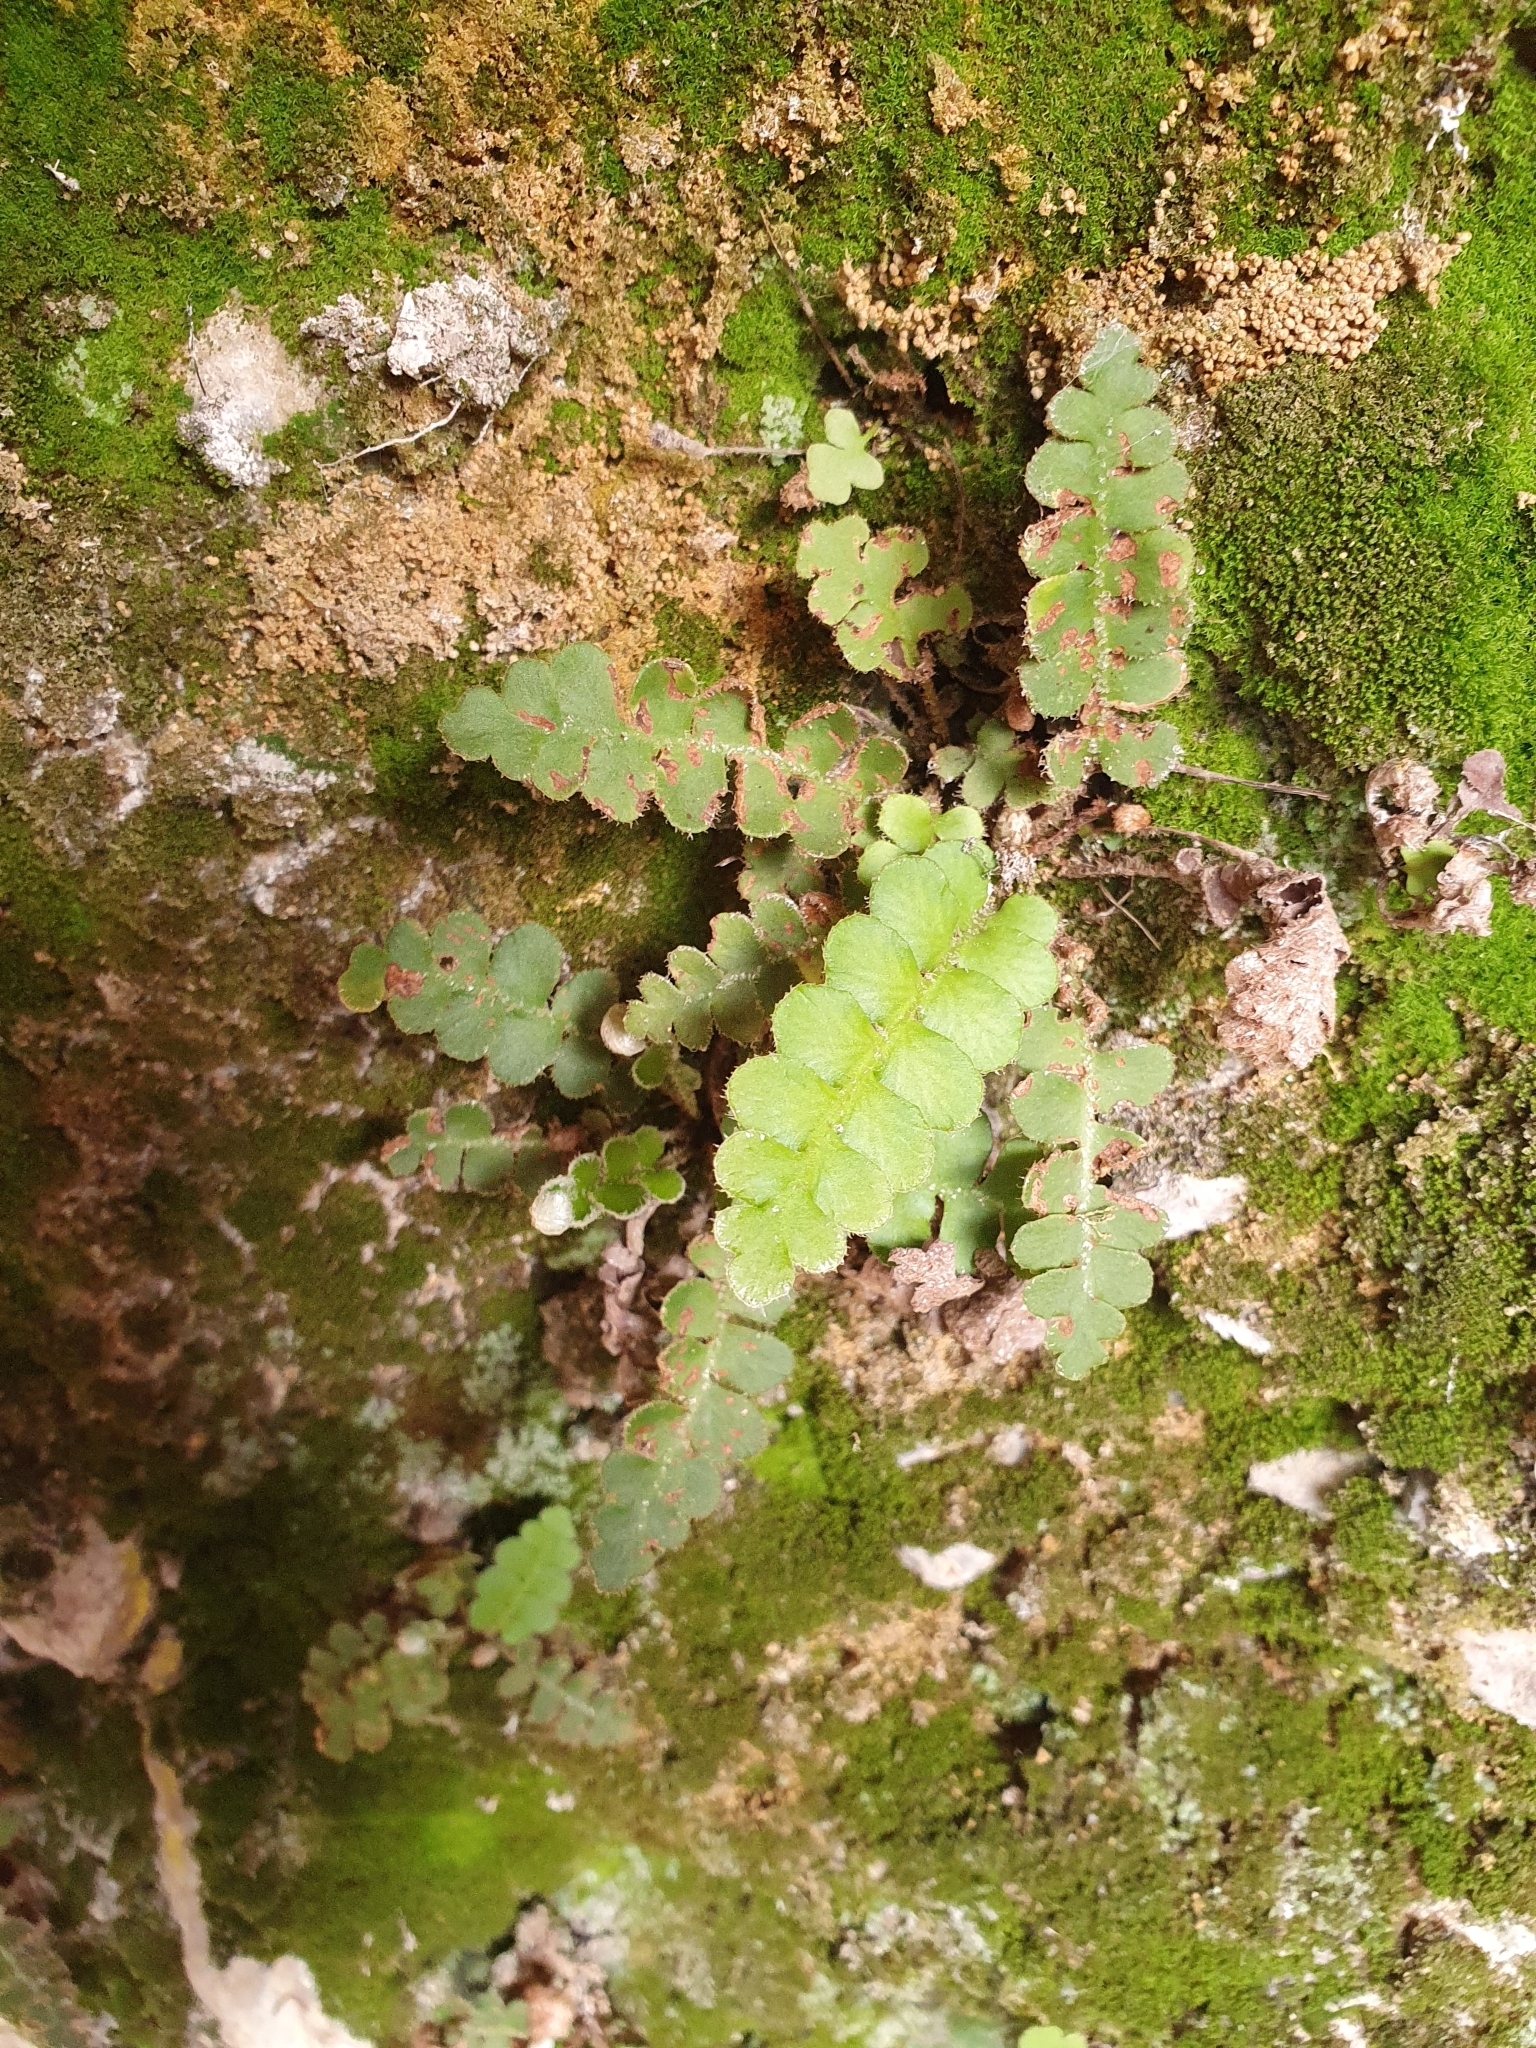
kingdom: Plantae
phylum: Tracheophyta
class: Polypodiopsida
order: Polypodiales
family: Aspleniaceae
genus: Asplenium
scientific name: Asplenium ceterach
